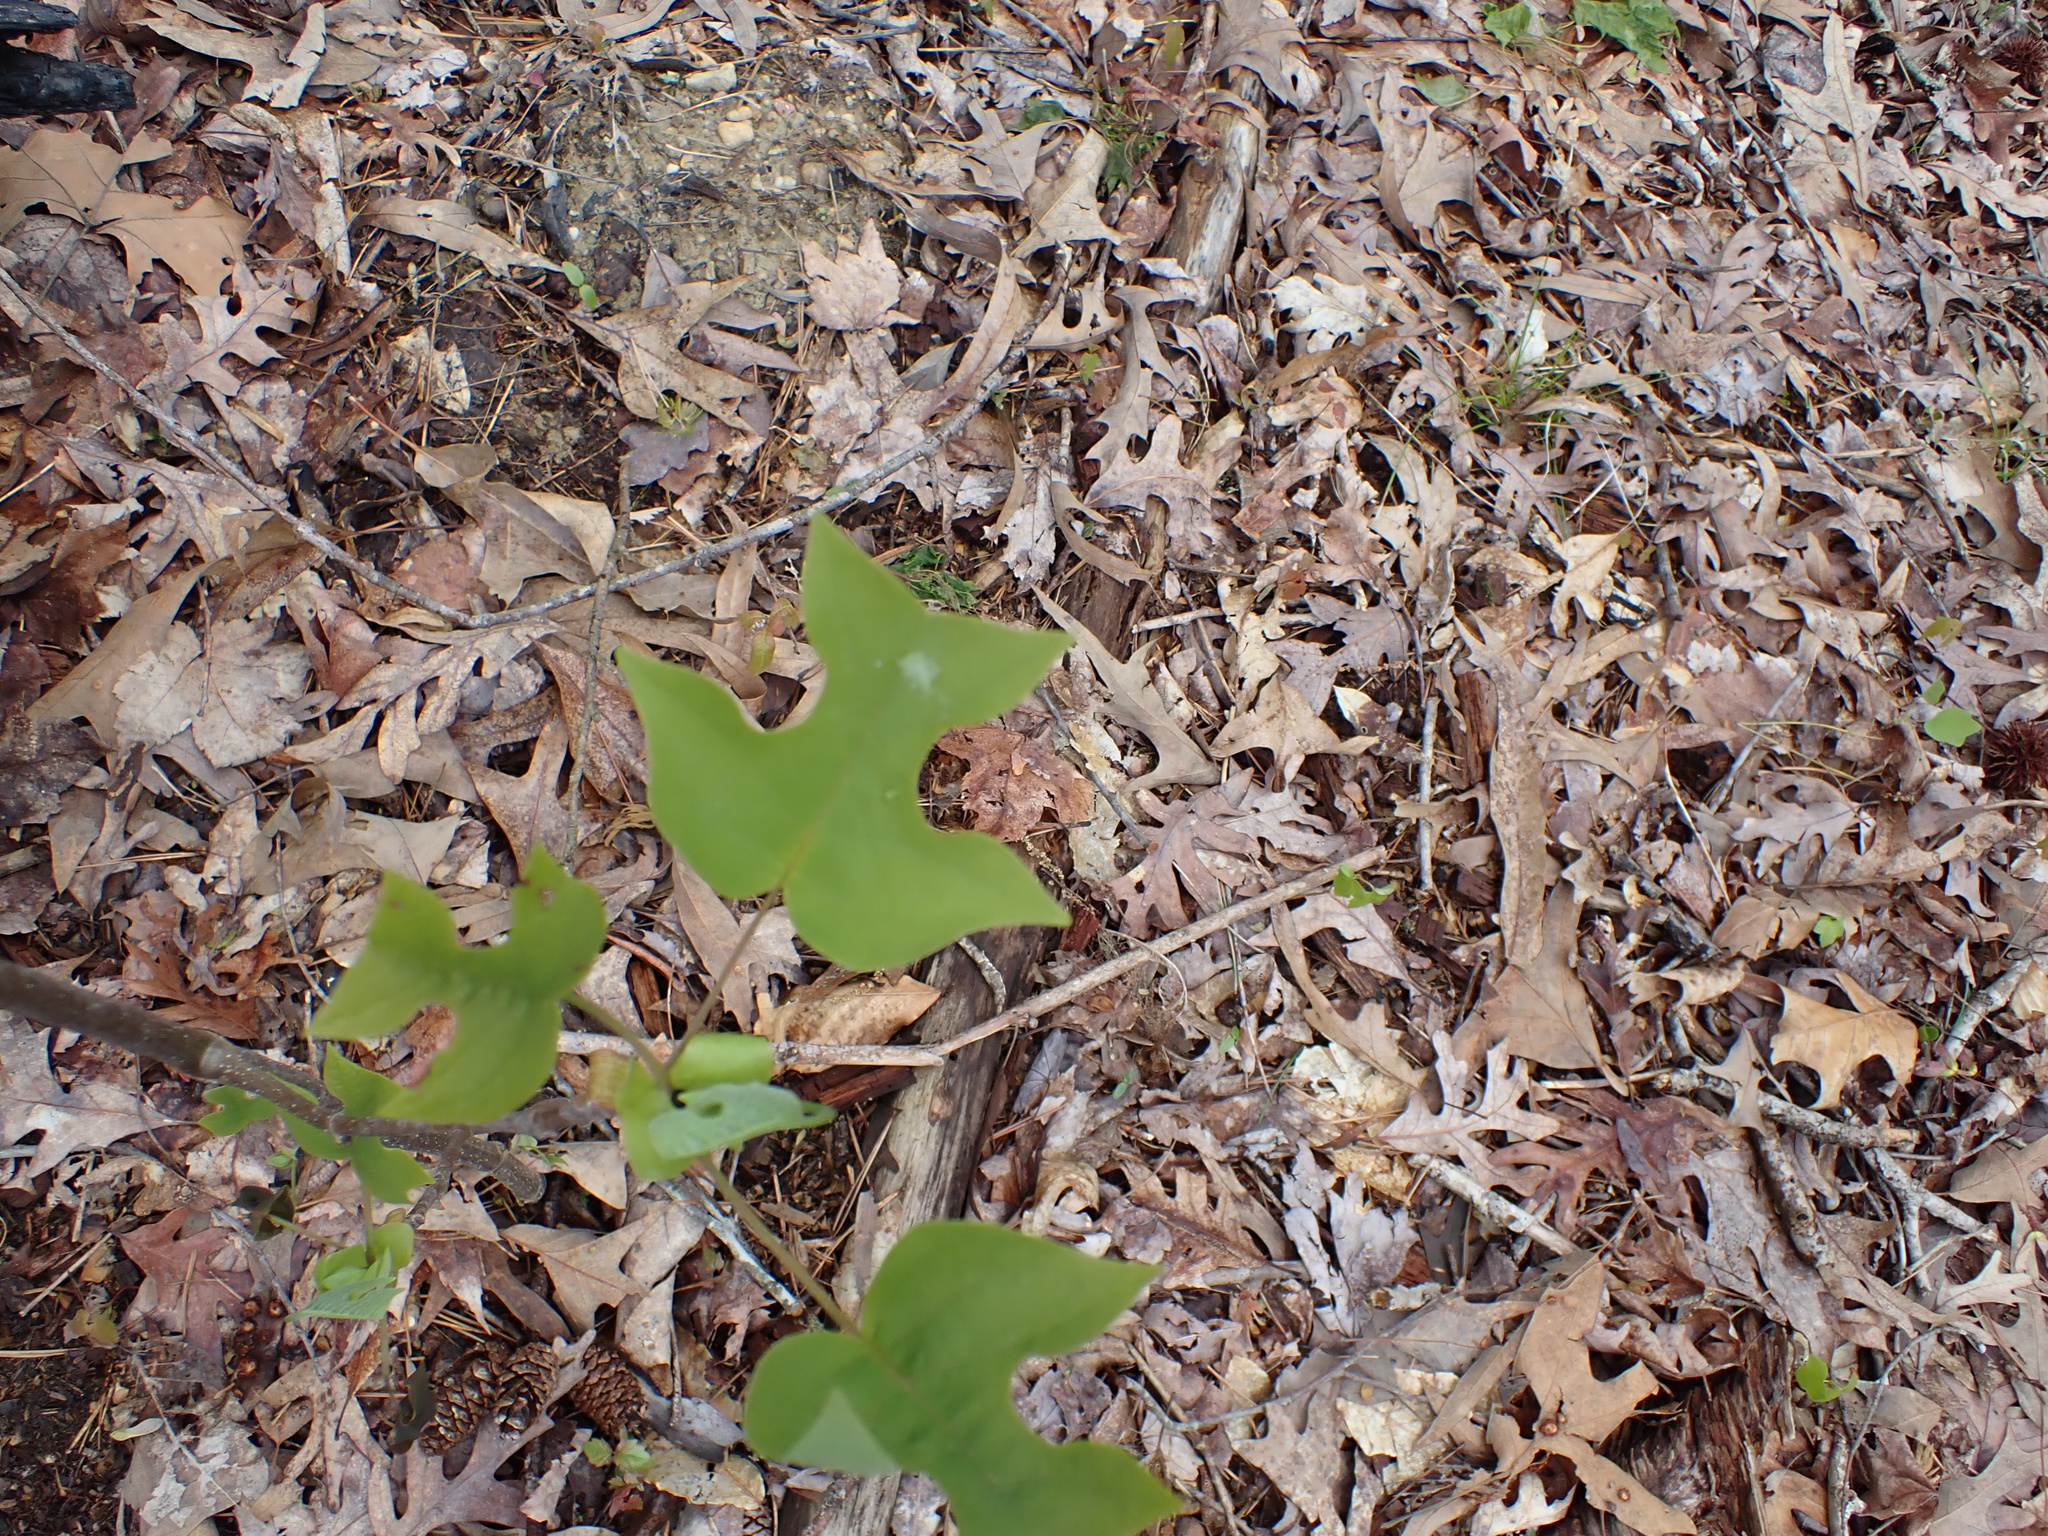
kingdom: Plantae
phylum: Tracheophyta
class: Magnoliopsida
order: Magnoliales
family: Magnoliaceae
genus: Liriodendron
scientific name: Liriodendron tulipifera
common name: Tulip tree
